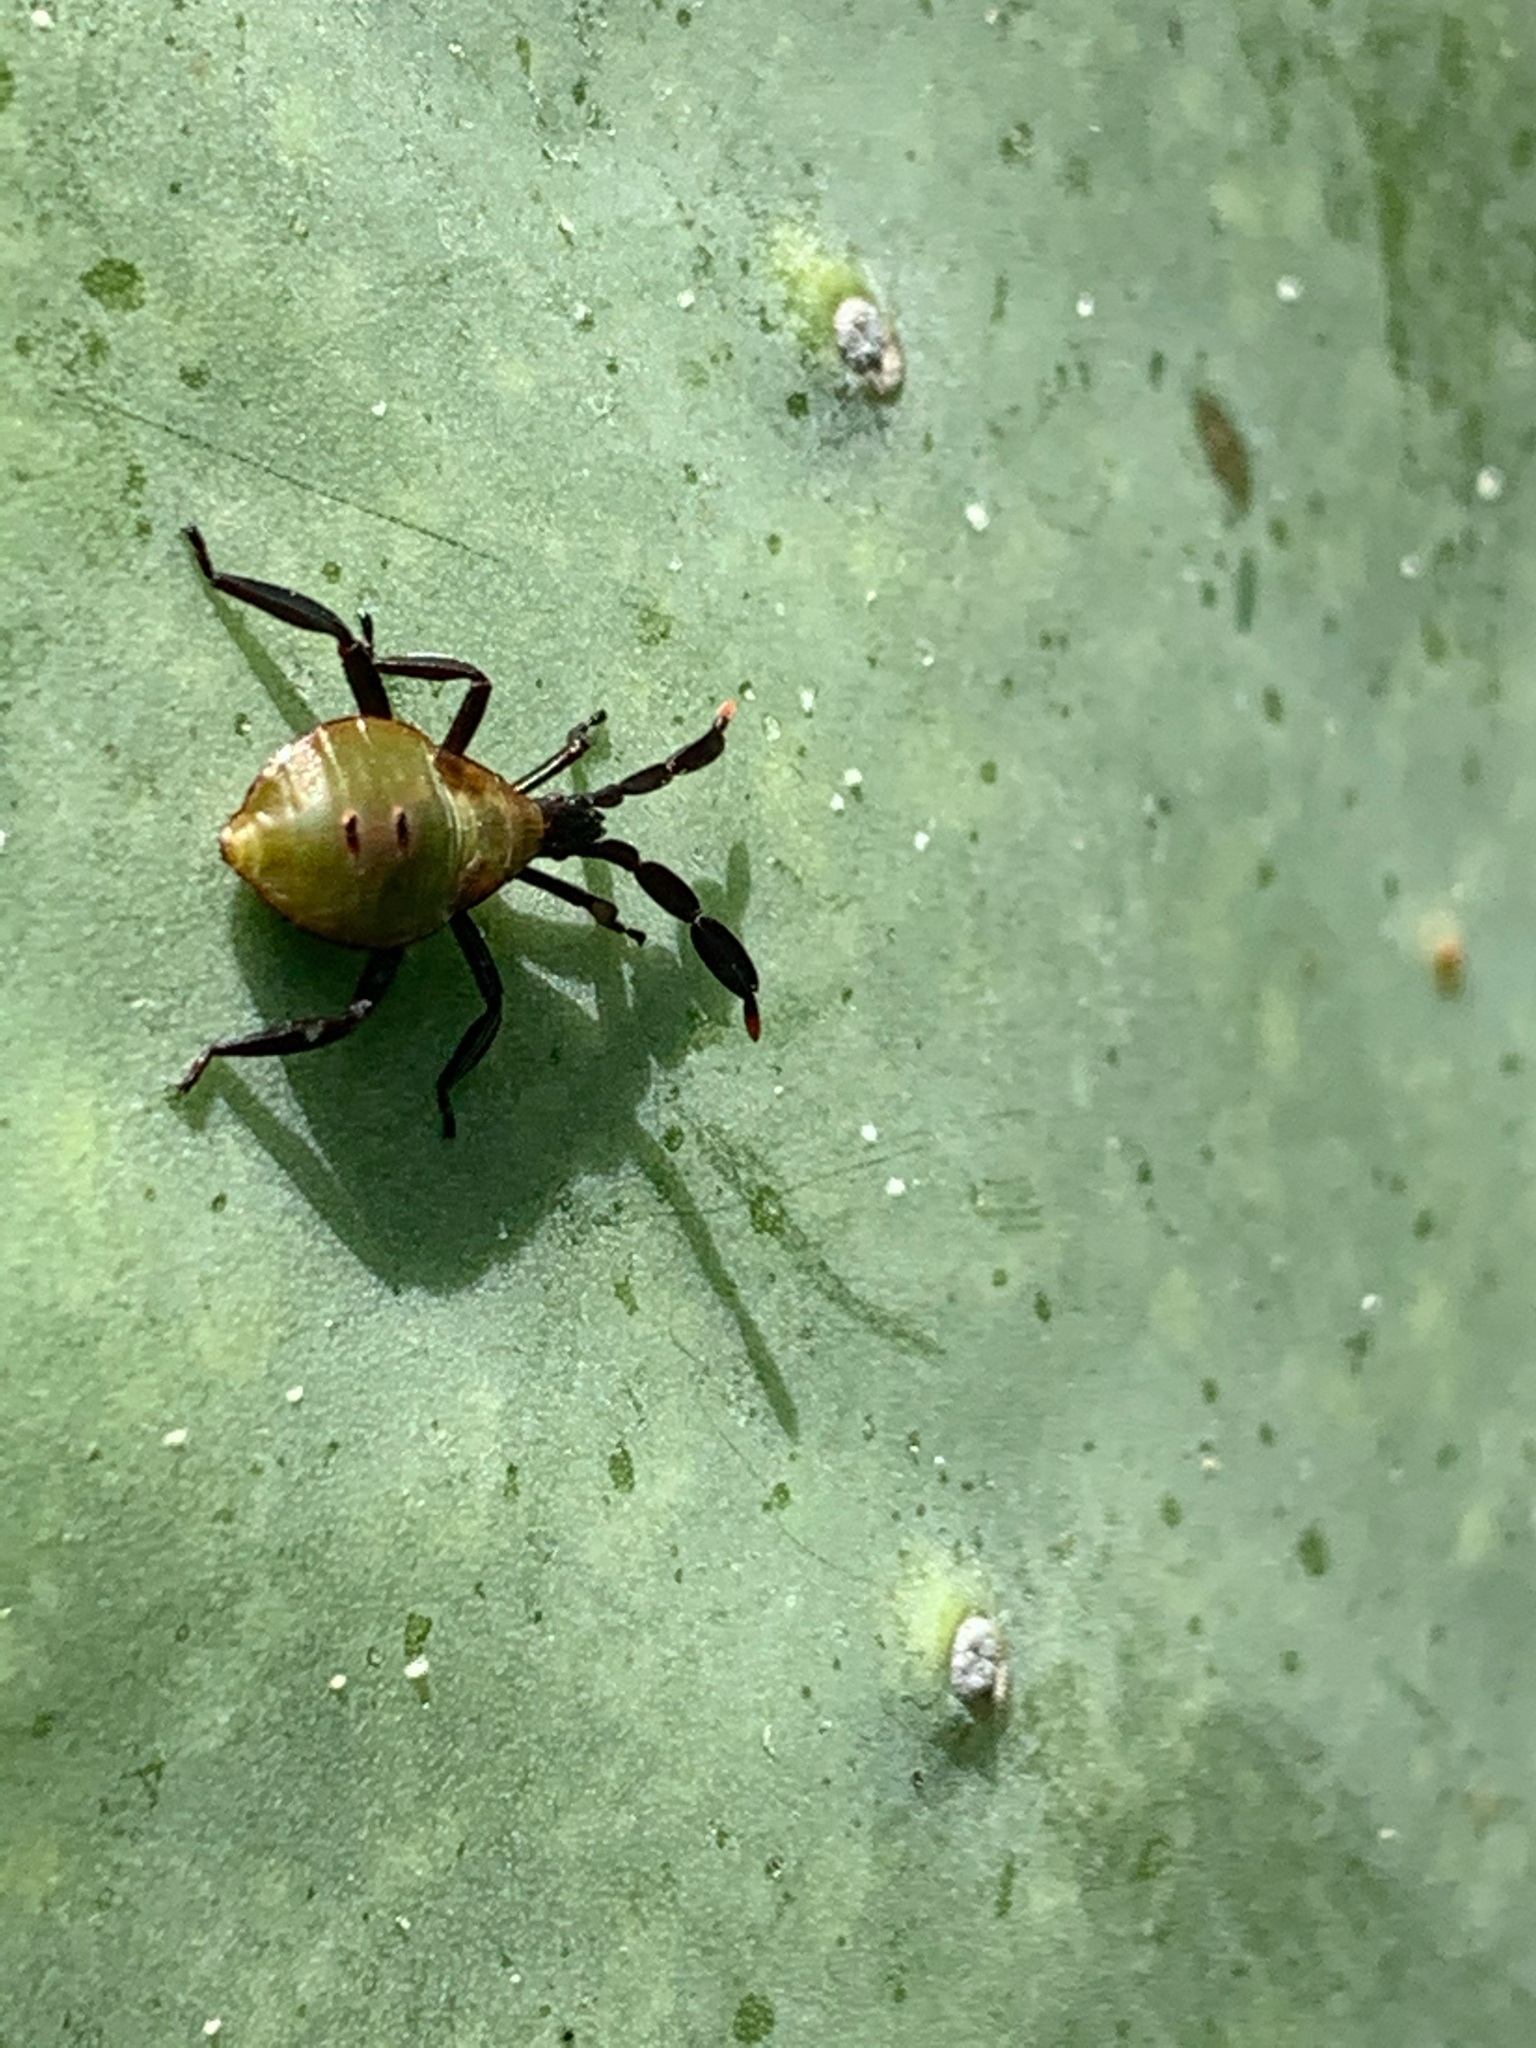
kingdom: Animalia
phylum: Arthropoda
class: Insecta
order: Hemiptera
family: Coreidae
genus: Chelinidea
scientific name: Chelinidea vittiger
